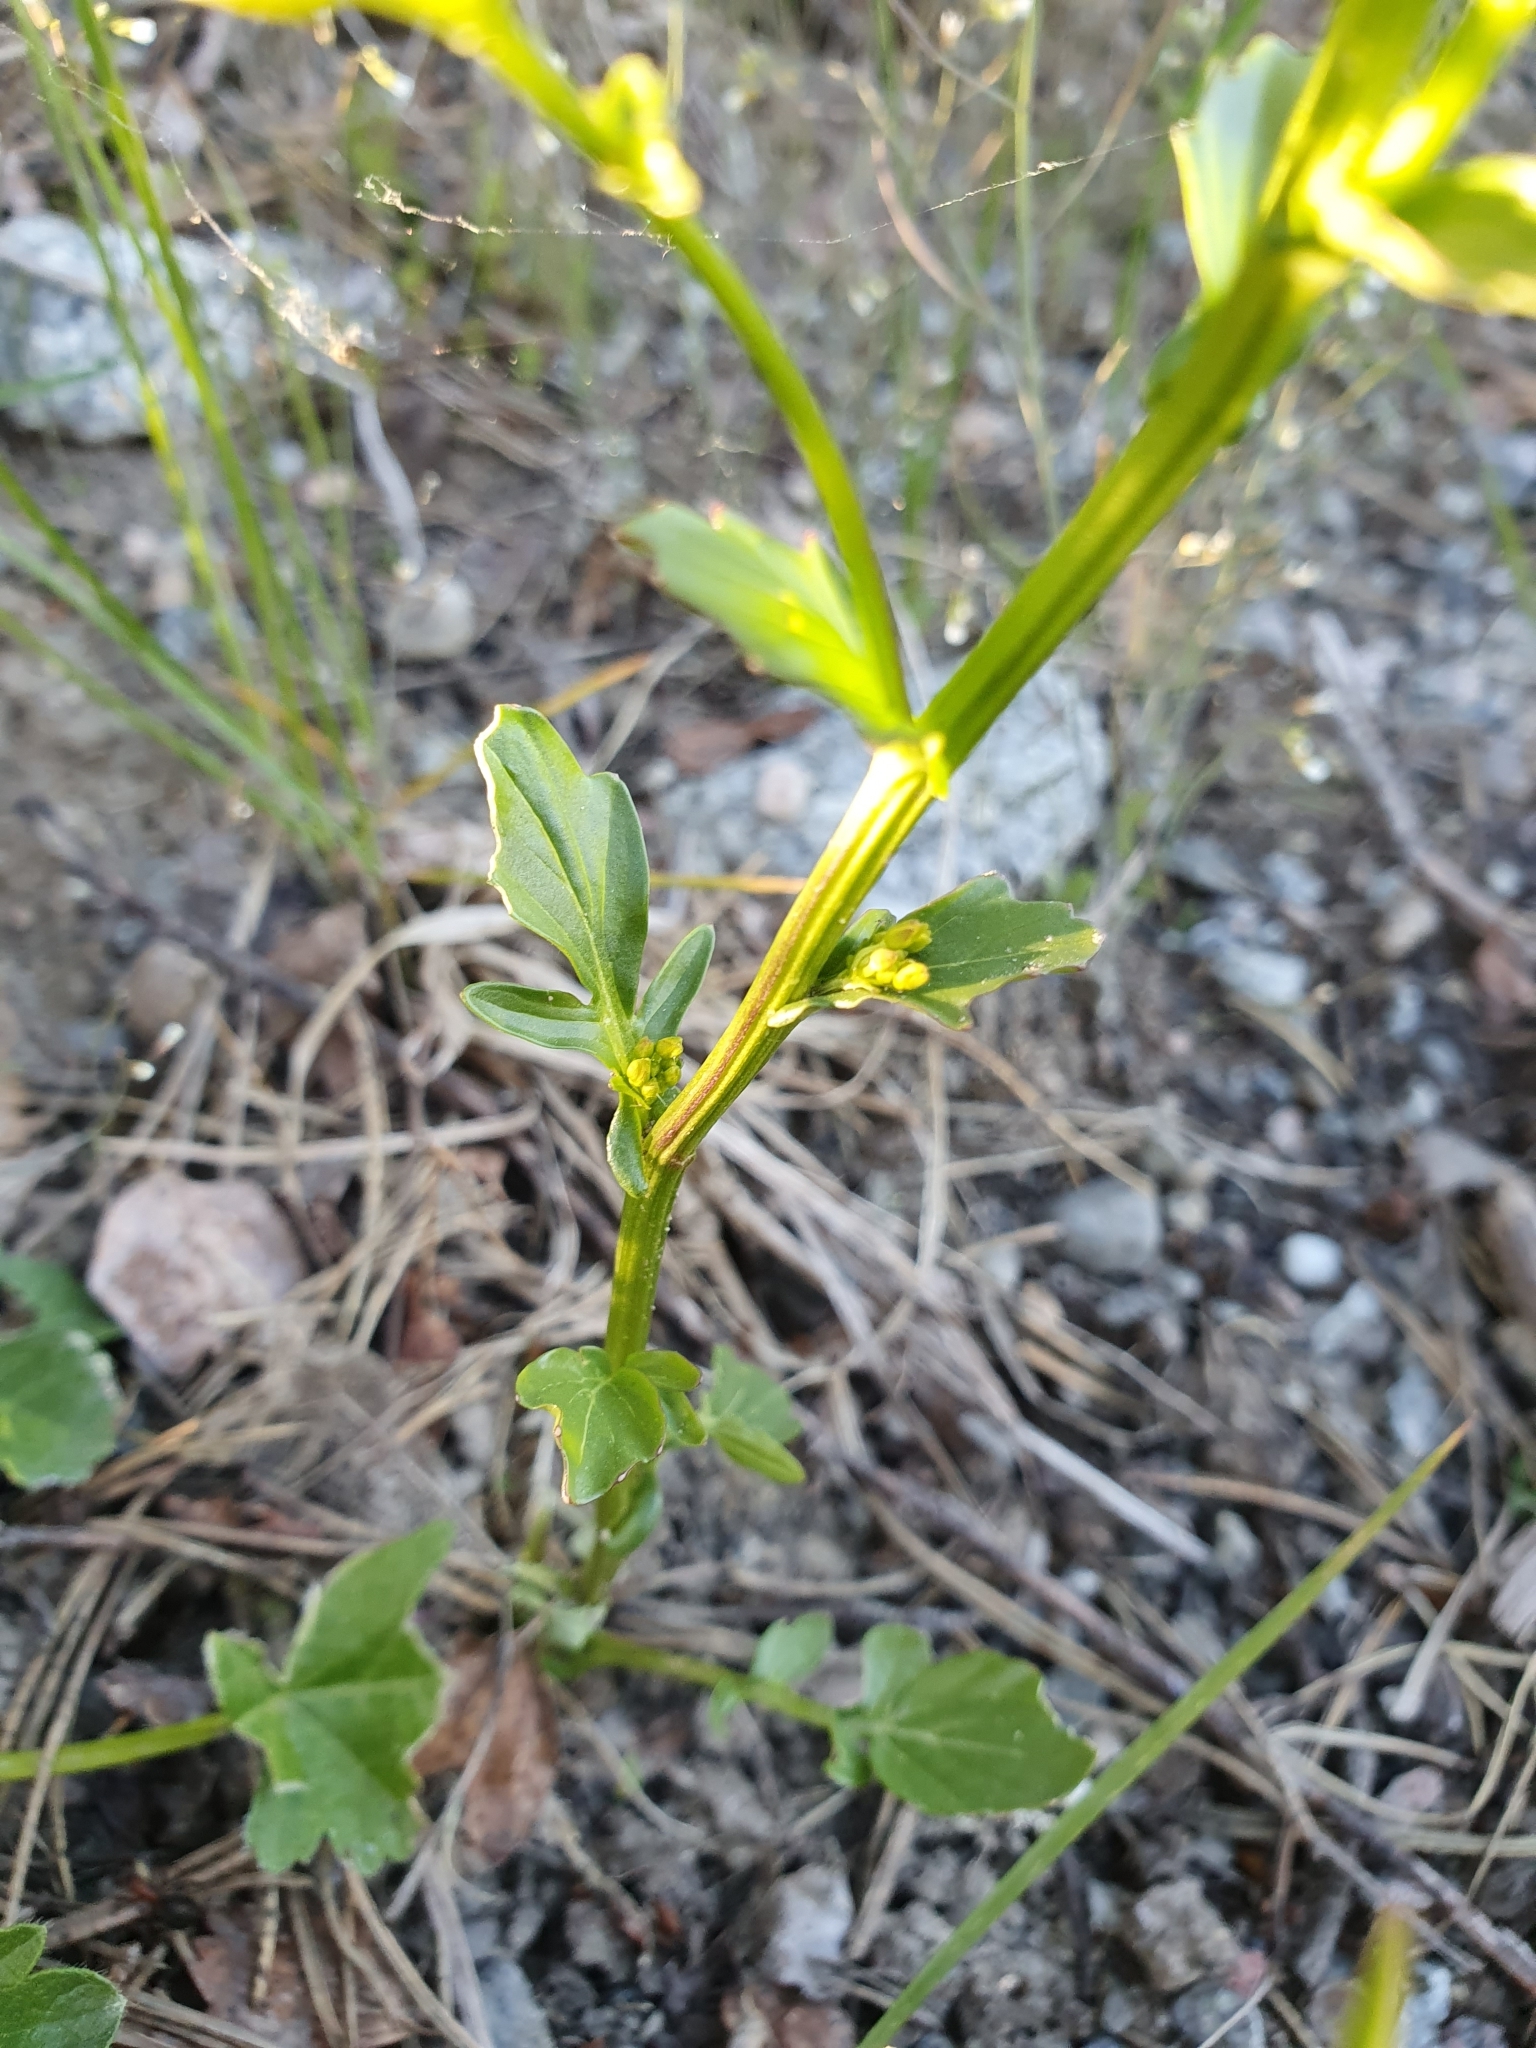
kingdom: Plantae
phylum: Tracheophyta
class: Magnoliopsida
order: Brassicales
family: Brassicaceae
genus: Barbarea
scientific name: Barbarea vulgaris
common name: Cressy-greens
